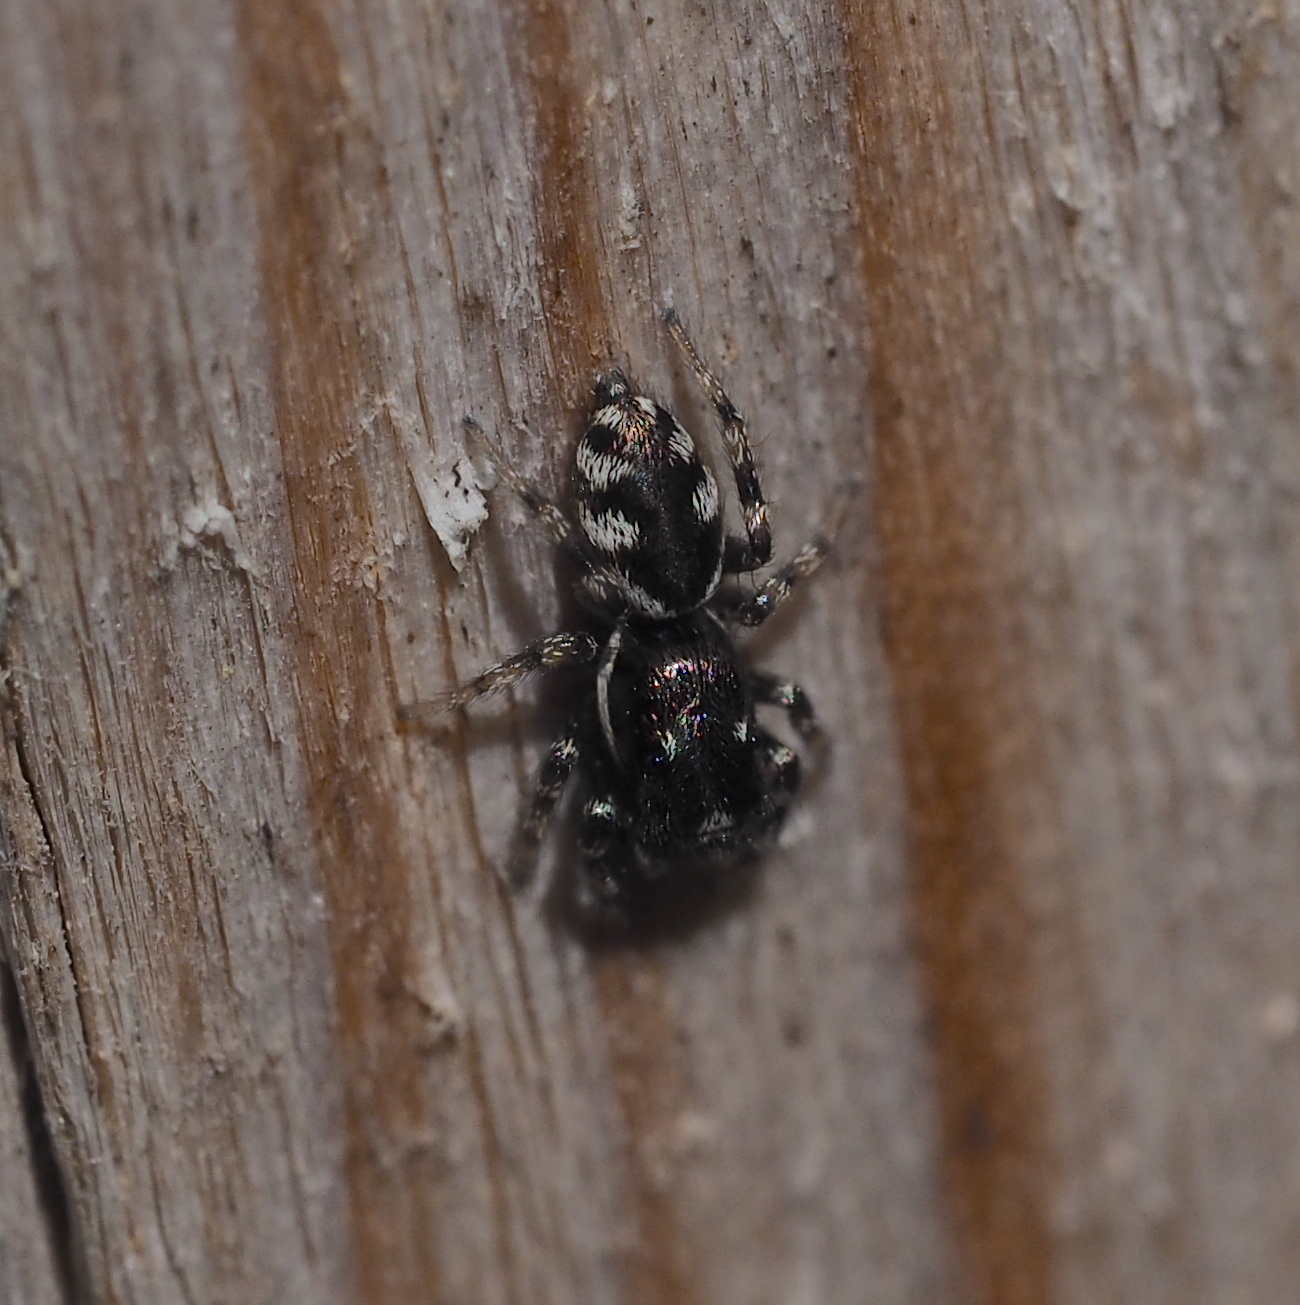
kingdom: Animalia
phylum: Arthropoda
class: Arachnida
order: Araneae
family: Salticidae
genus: Salticus
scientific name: Salticus scenicus
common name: Zebra jumper
